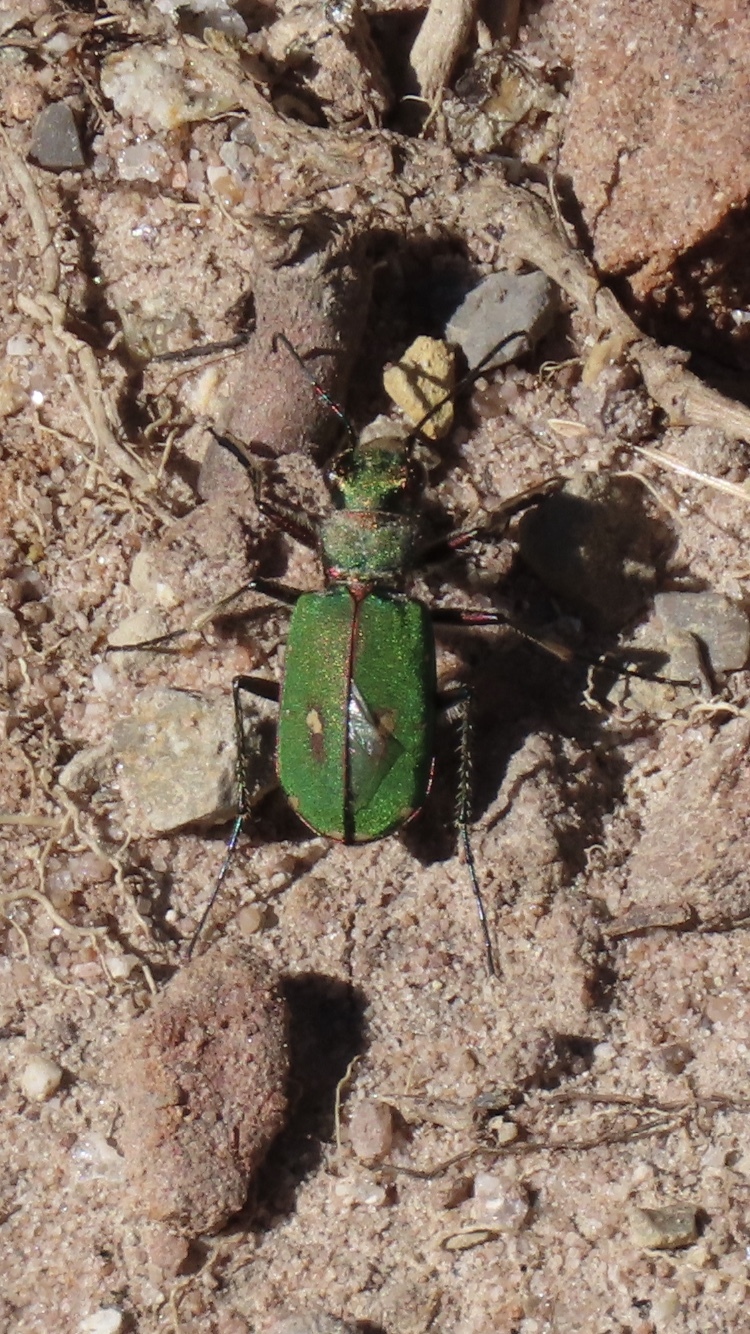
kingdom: Animalia
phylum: Arthropoda
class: Insecta
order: Coleoptera
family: Carabidae
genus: Cicindela
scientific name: Cicindela campestris
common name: Common tiger beetle
